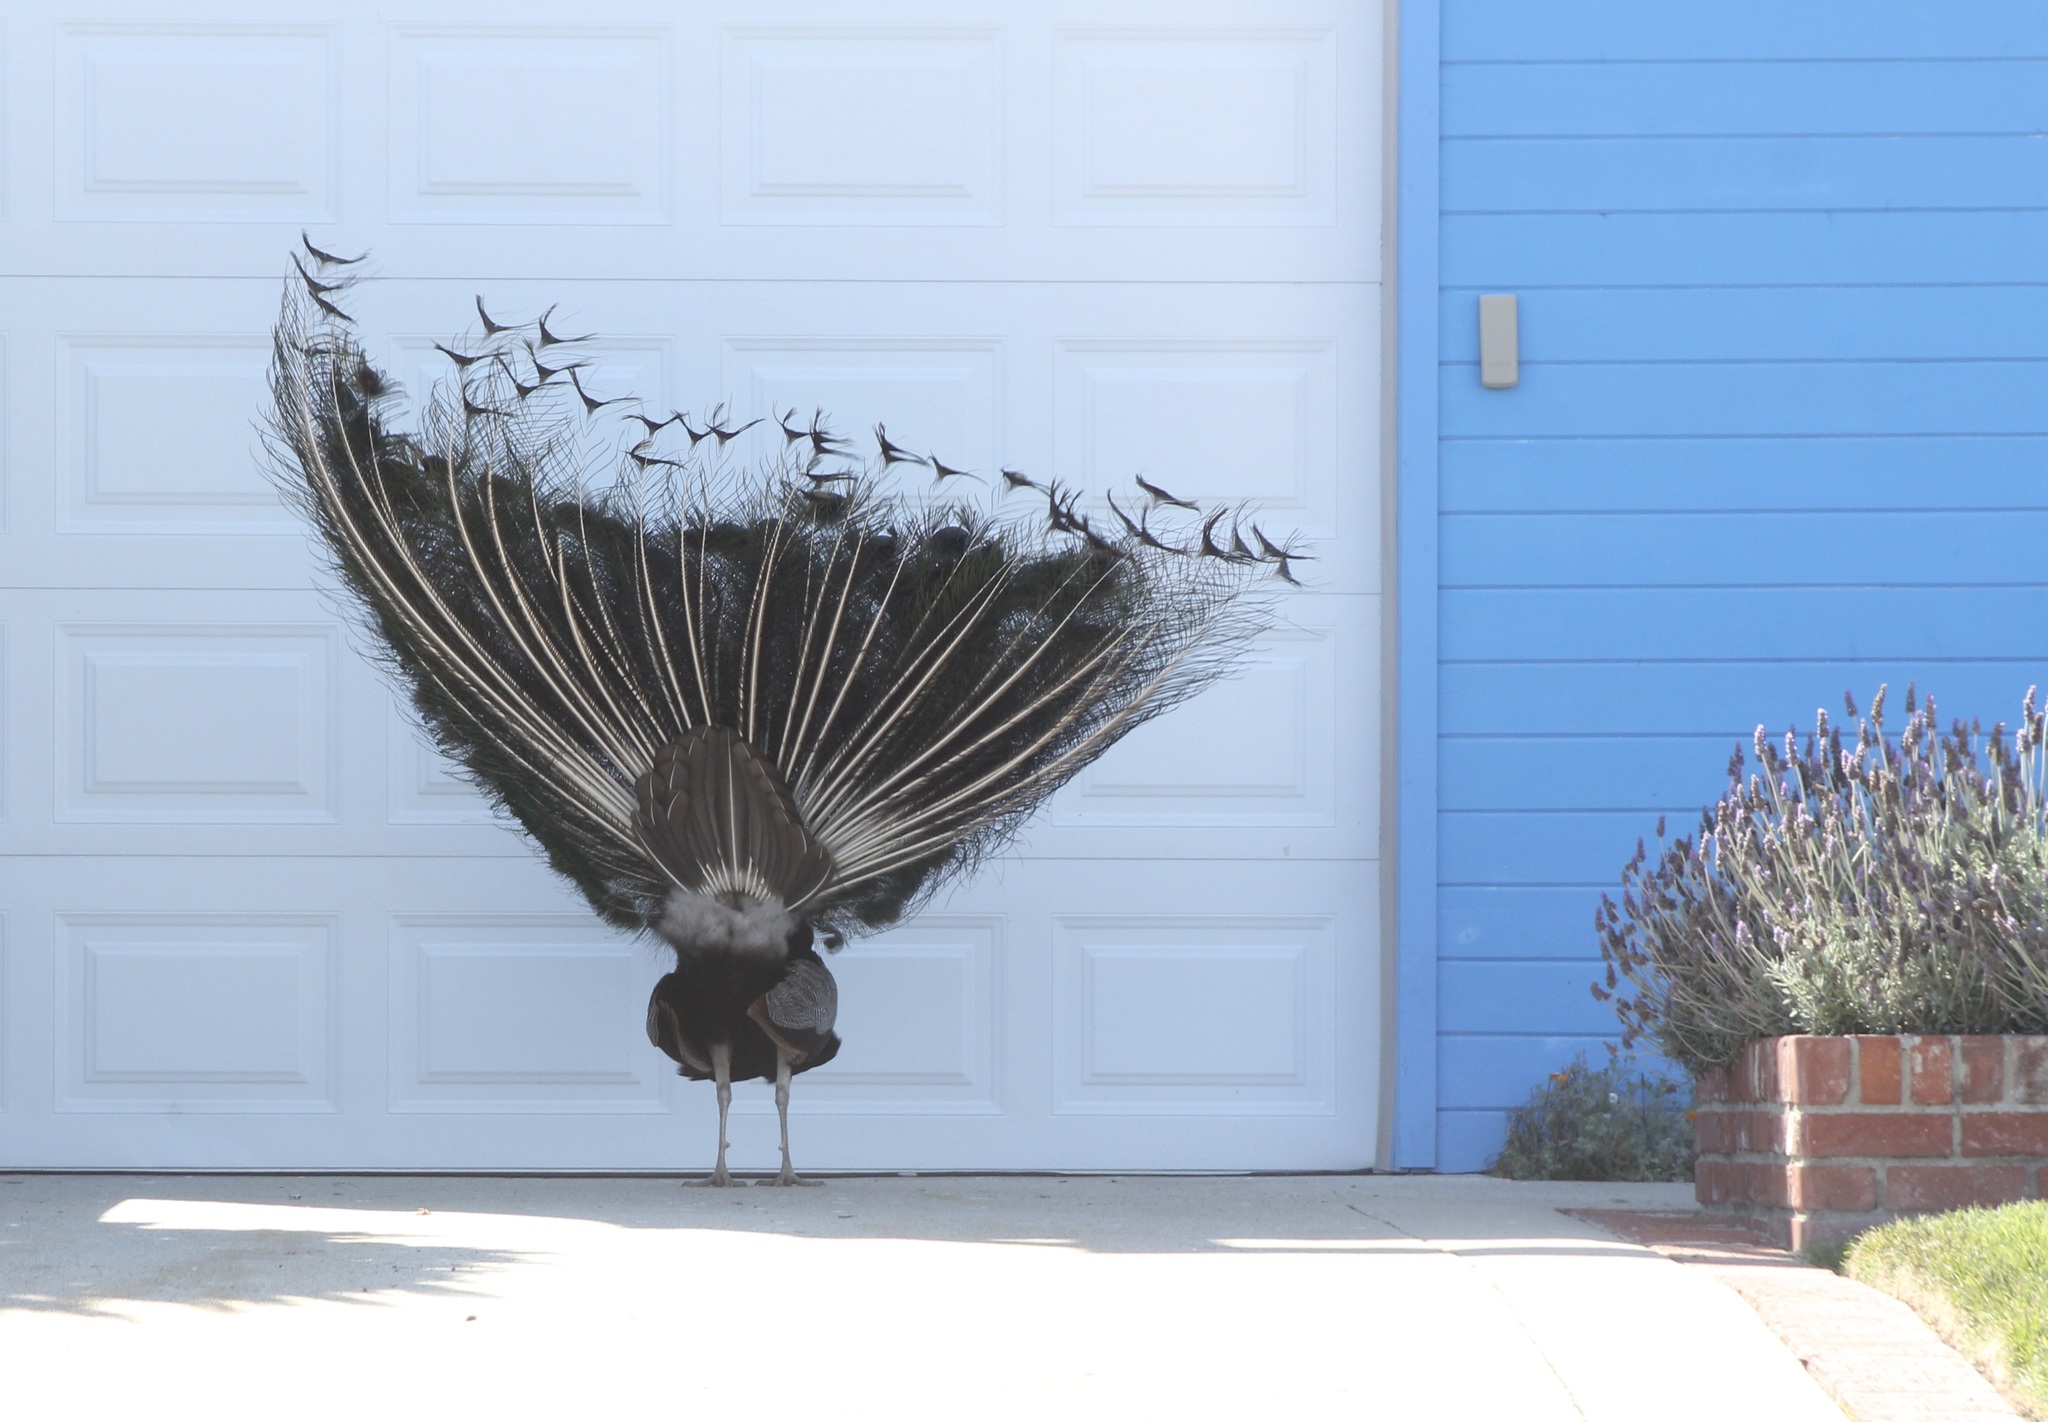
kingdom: Animalia
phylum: Chordata
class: Aves
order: Galliformes
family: Phasianidae
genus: Pavo
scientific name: Pavo cristatus
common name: Indian peafowl
